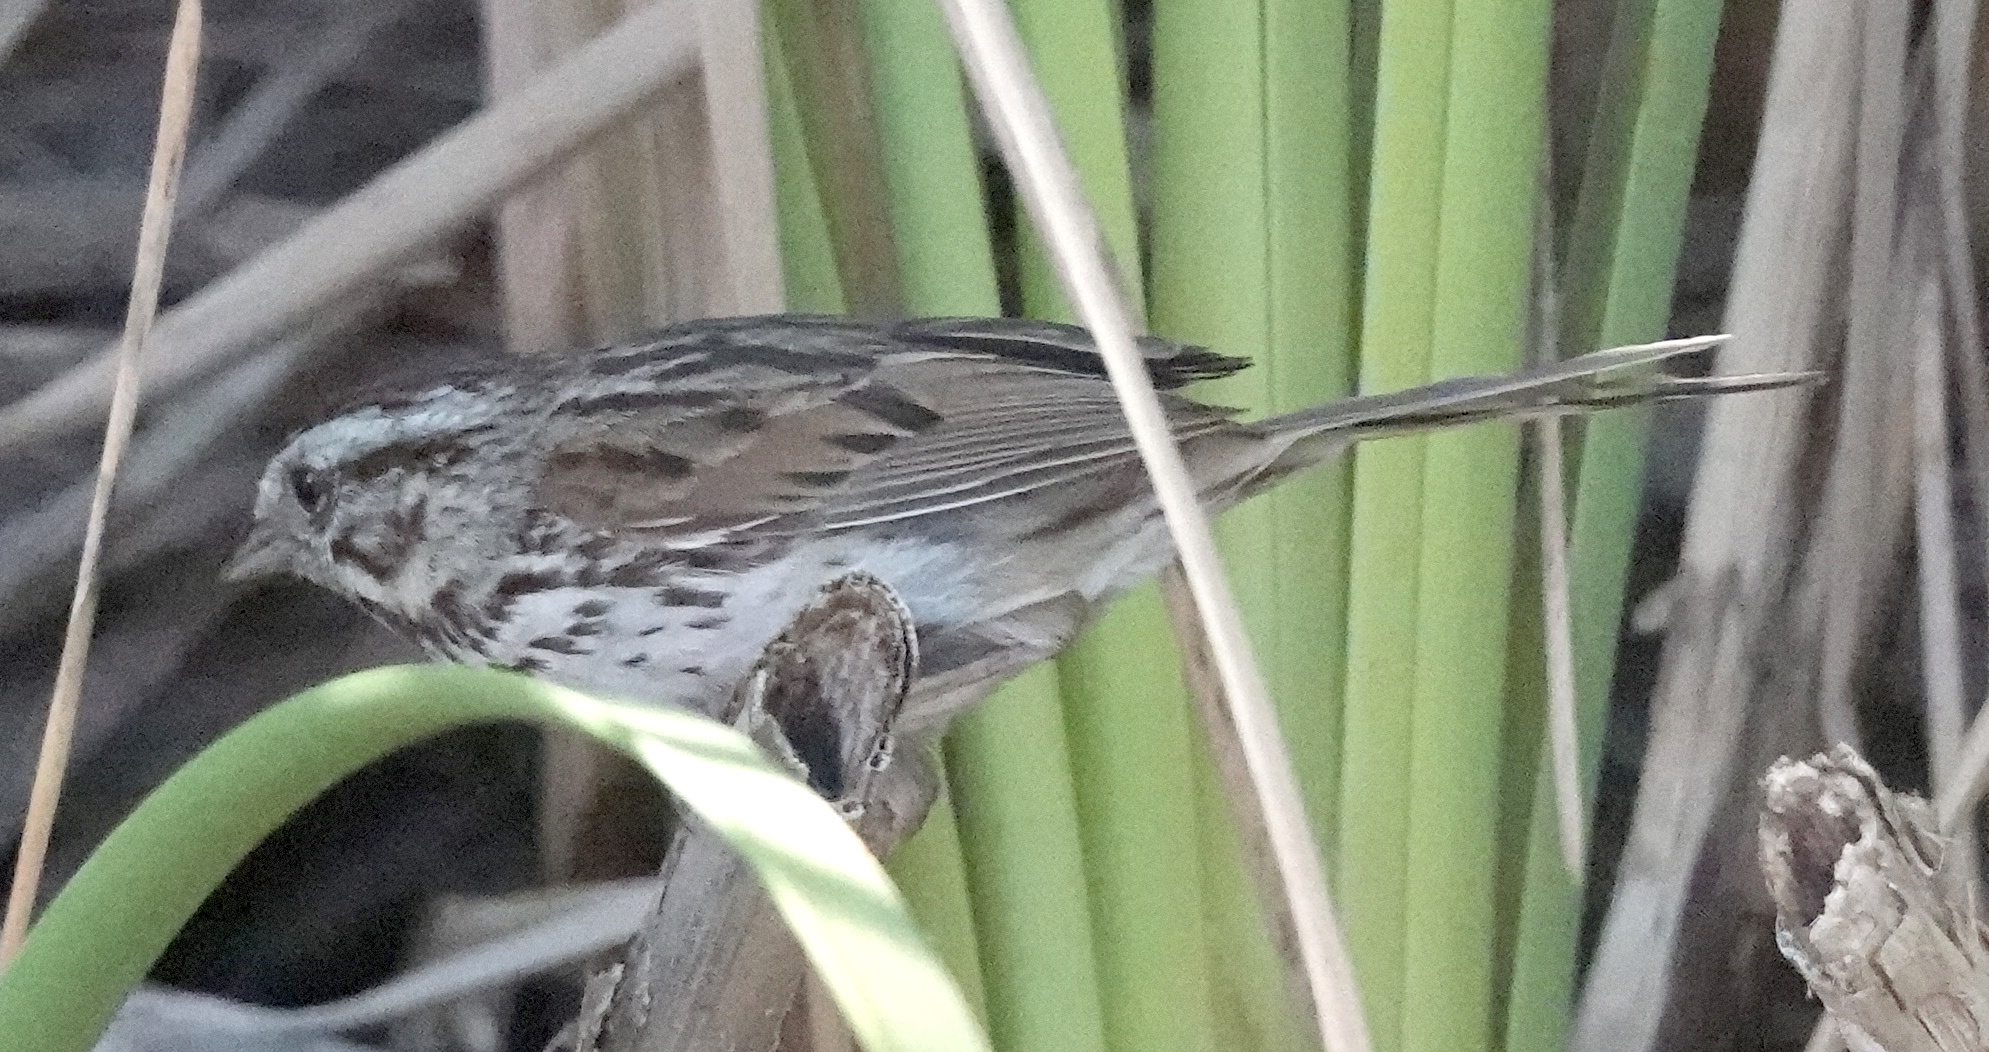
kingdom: Animalia
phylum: Chordata
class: Aves
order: Passeriformes
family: Passerellidae
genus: Melospiza
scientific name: Melospiza melodia
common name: Song sparrow
